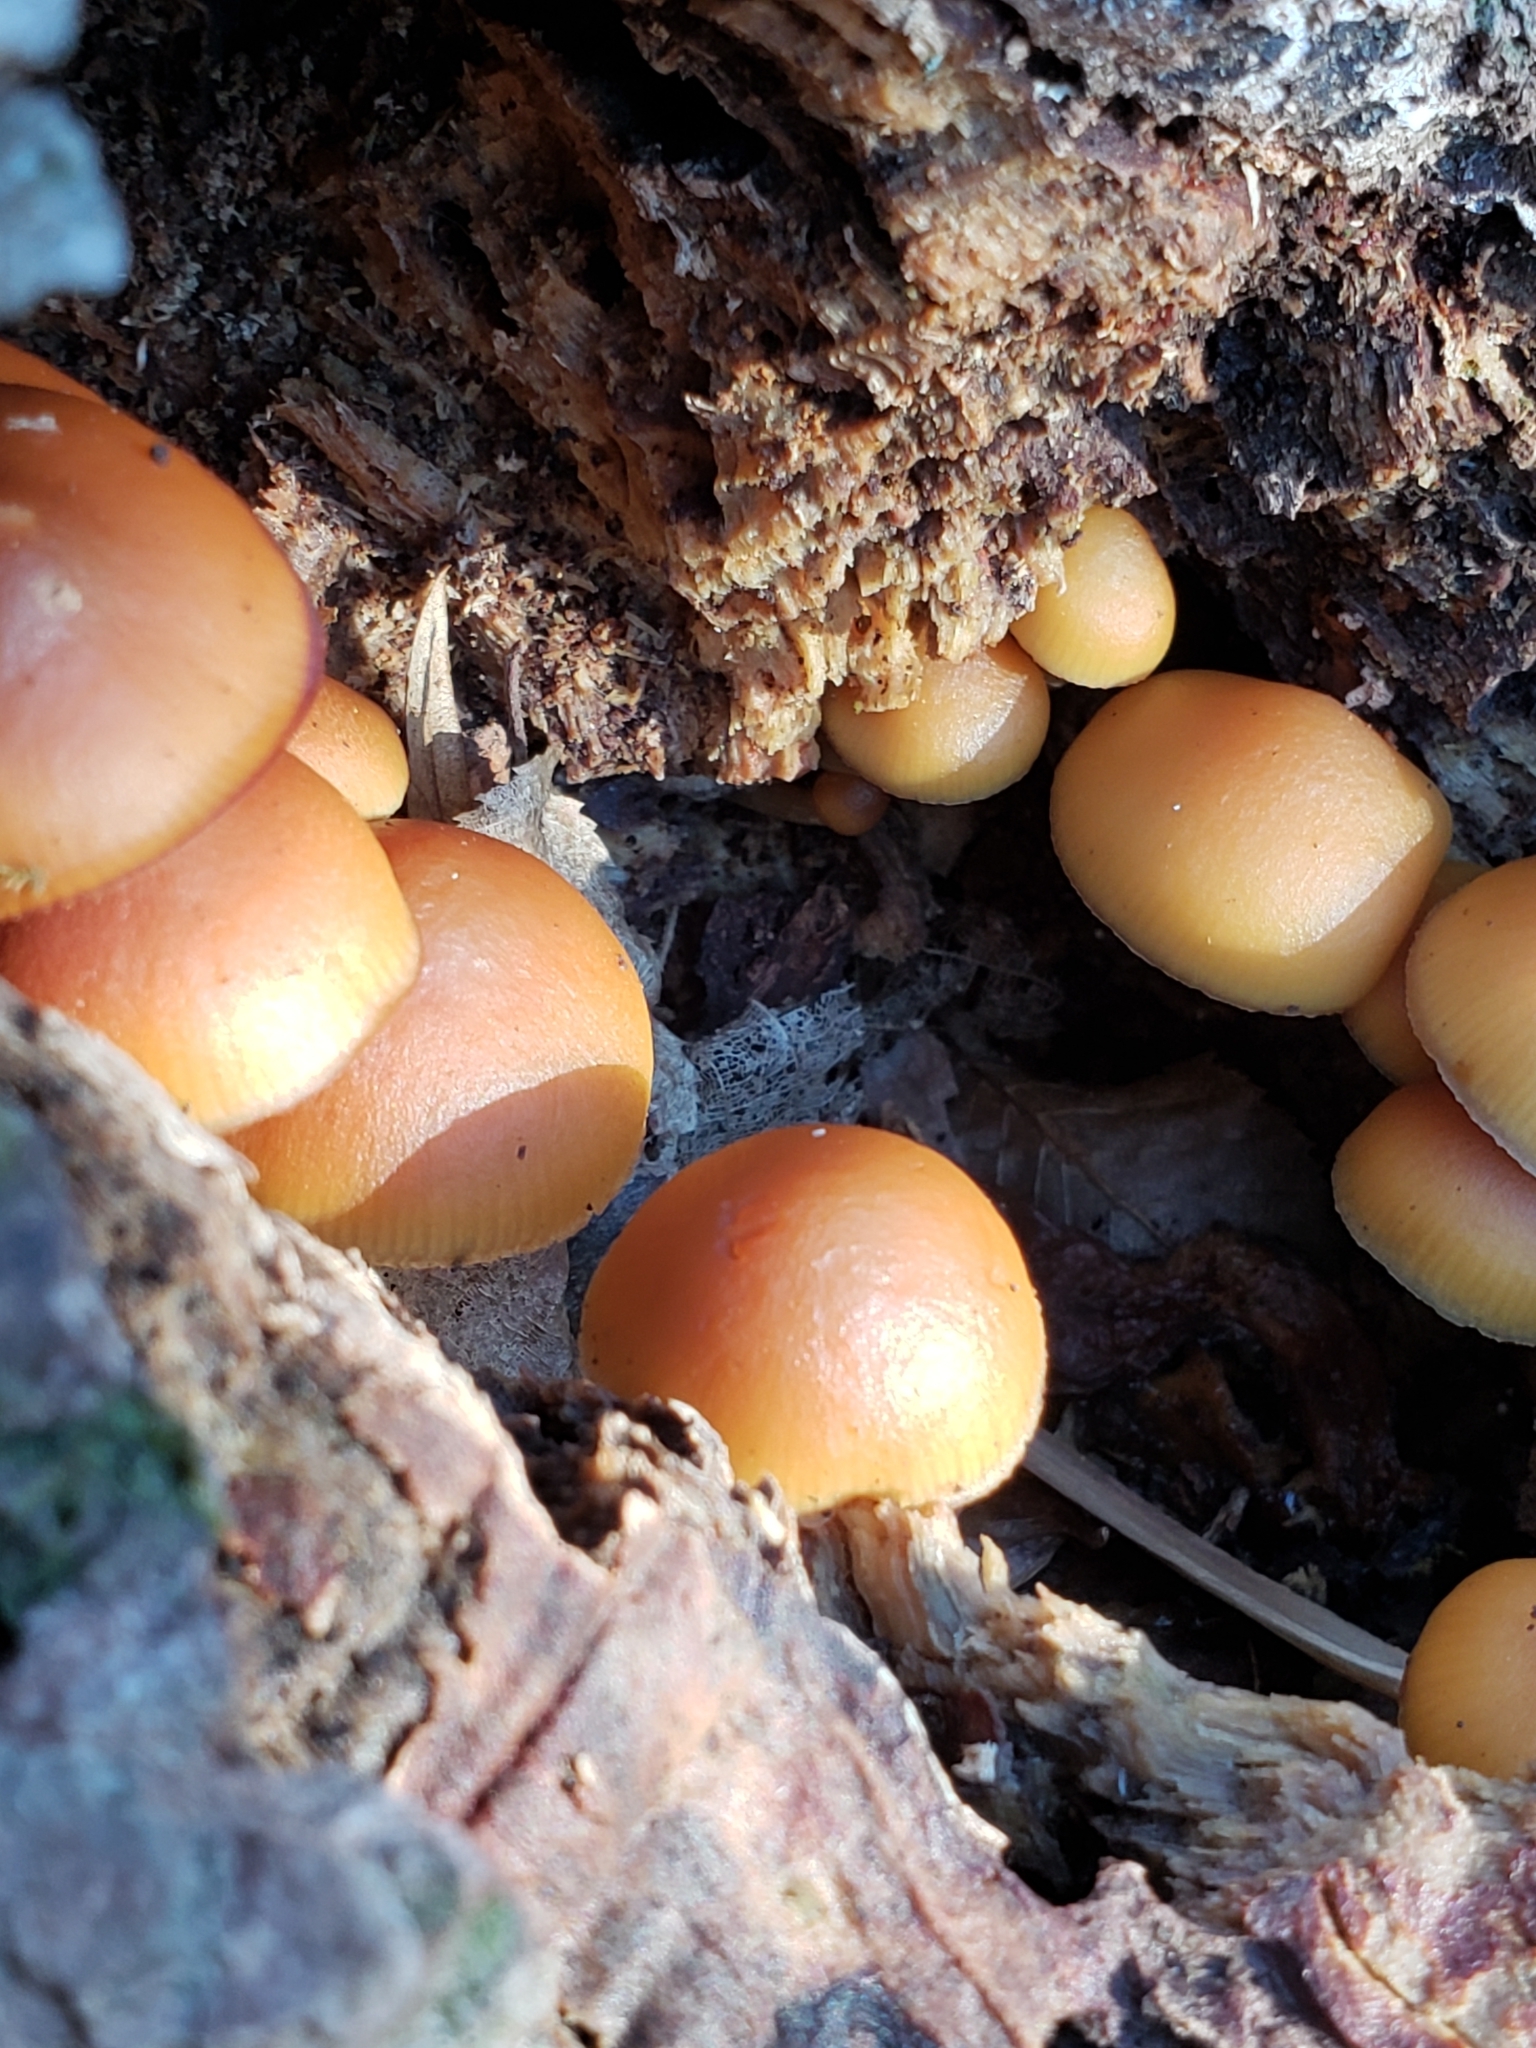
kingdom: Fungi
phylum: Basidiomycota
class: Agaricomycetes
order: Agaricales
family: Hymenogastraceae
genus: Galerina
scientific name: Galerina marginata
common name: Funeral bell
